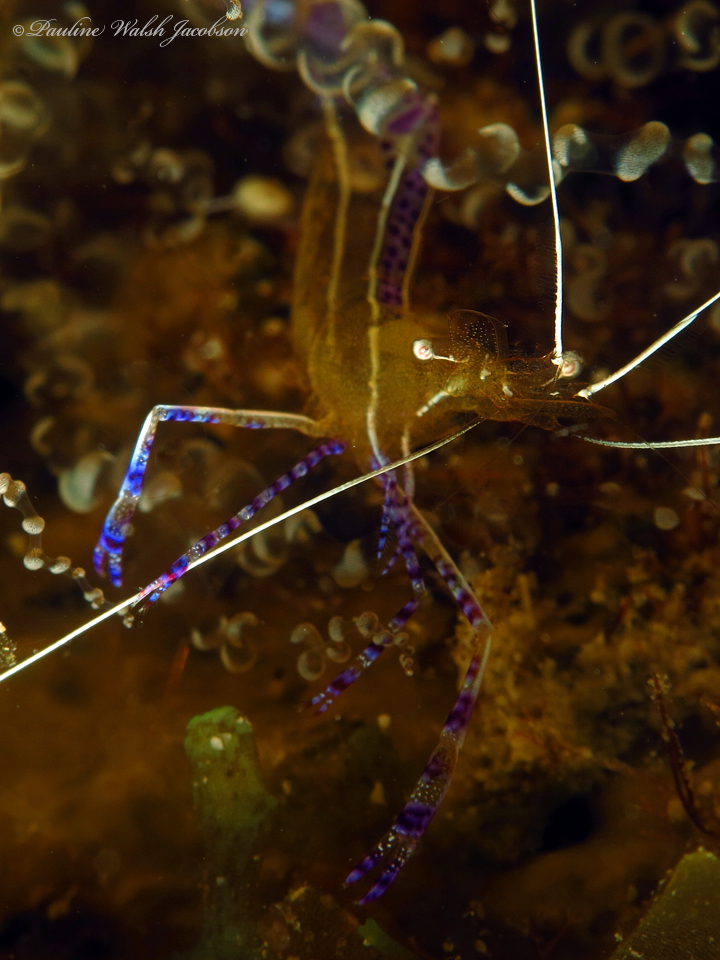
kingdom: Animalia
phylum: Arthropoda
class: Malacostraca
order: Decapoda
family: Palaemonidae
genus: Ancylomenes
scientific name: Ancylomenes pedersoni
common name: Pederson's cleaning shrimp
